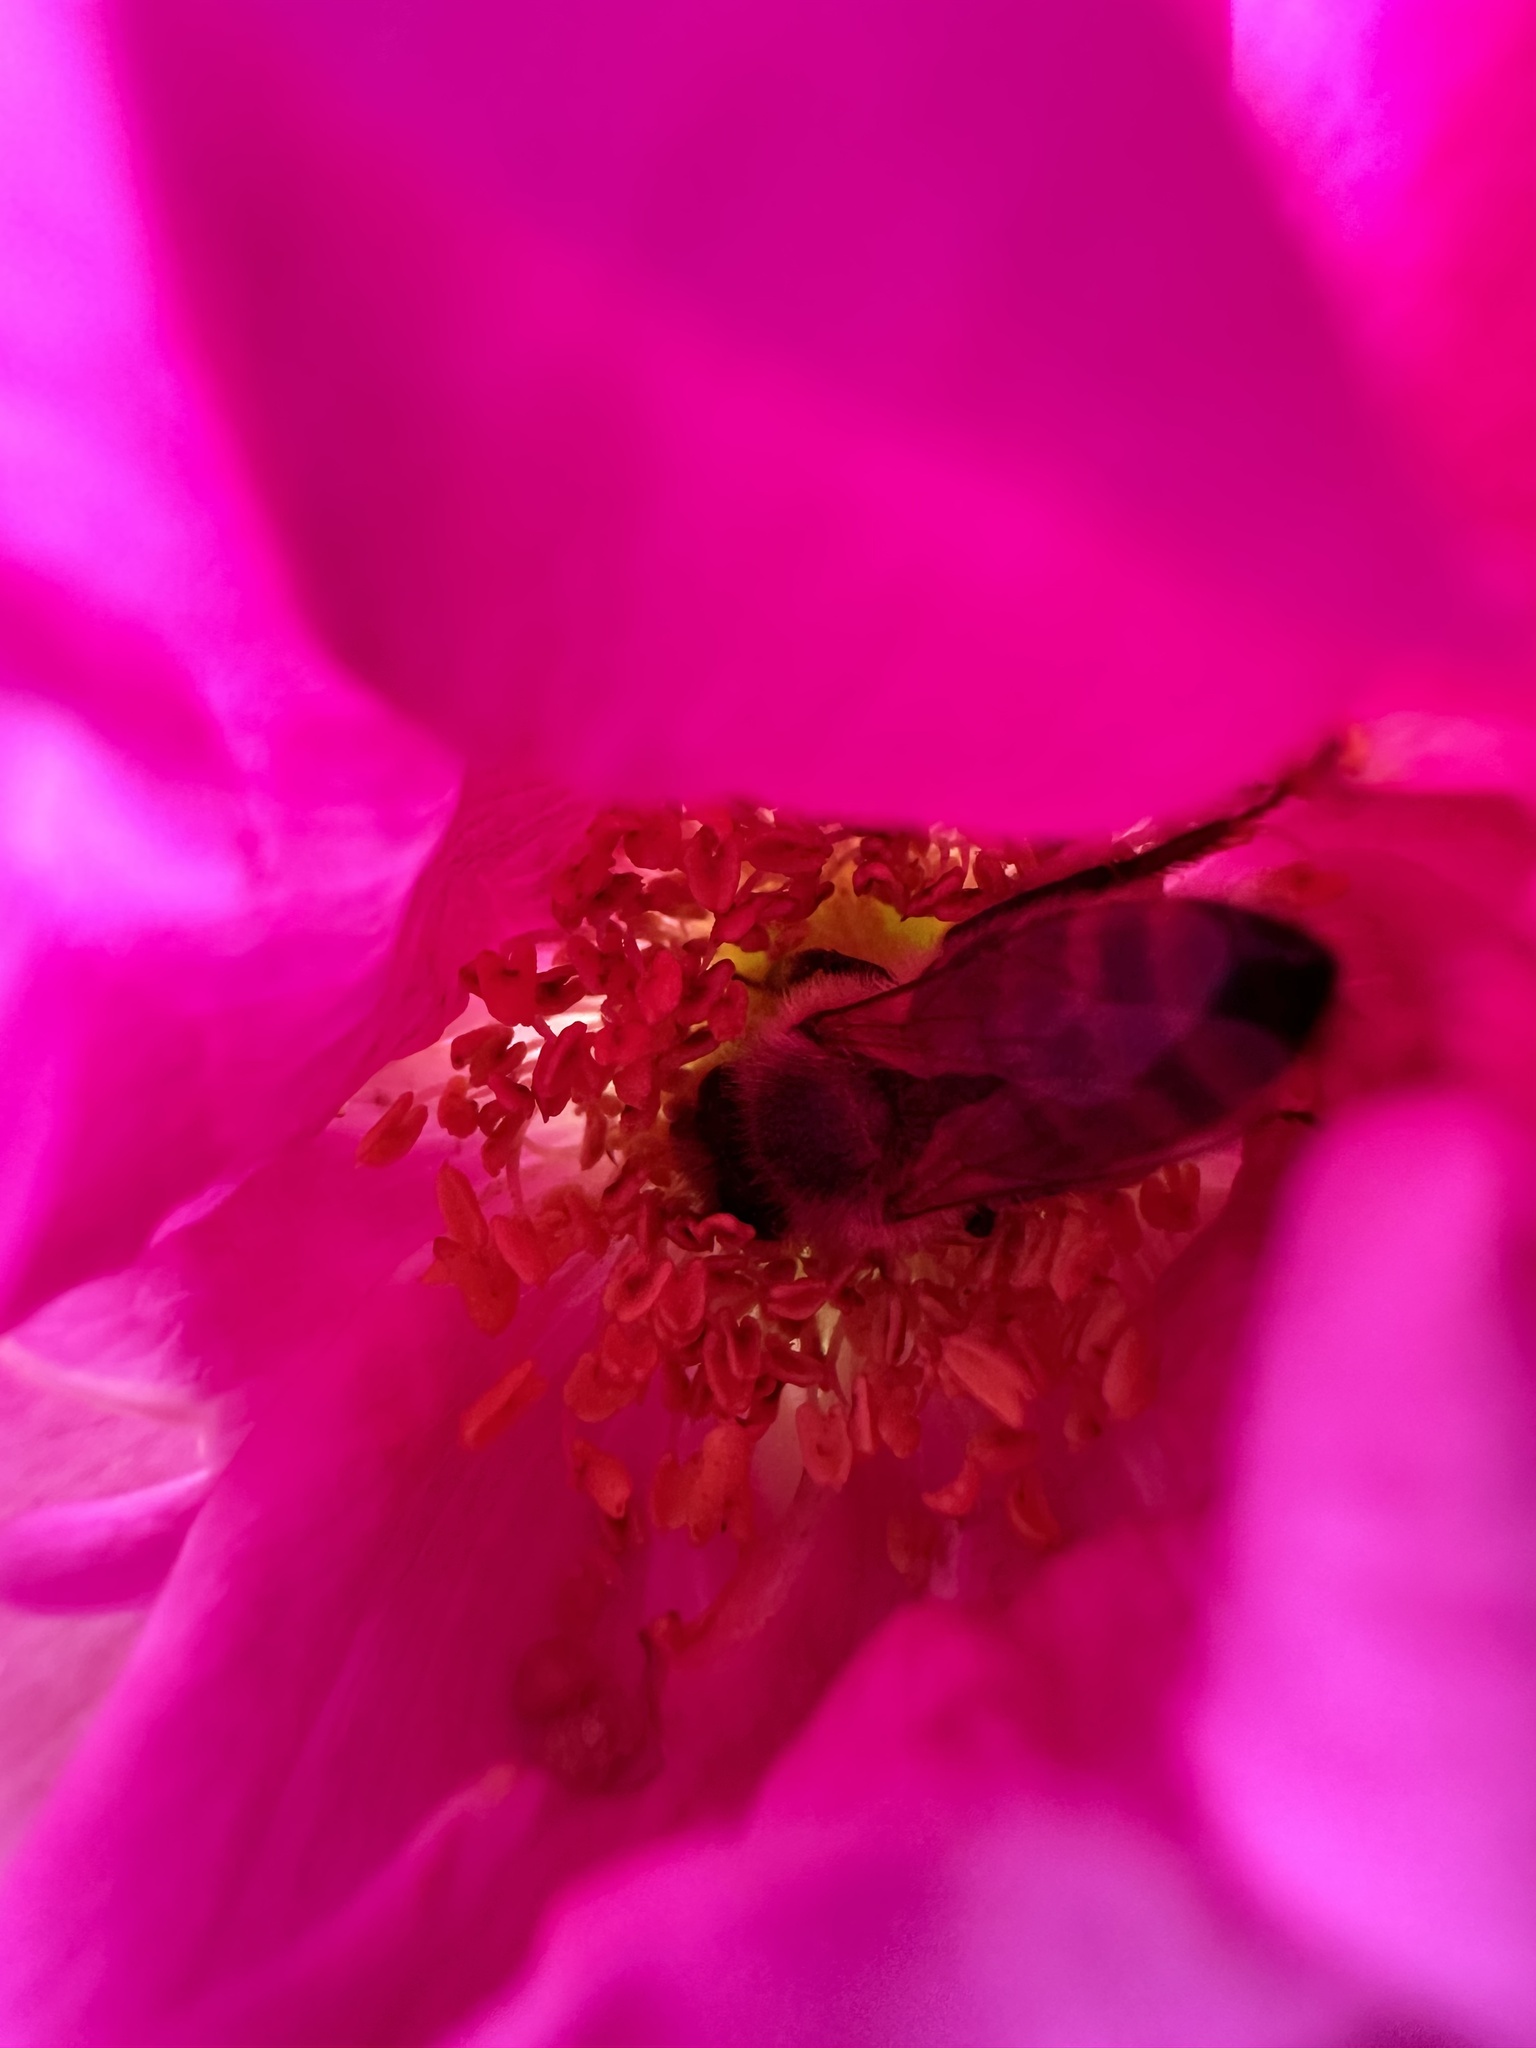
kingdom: Animalia
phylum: Arthropoda
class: Insecta
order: Hymenoptera
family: Apidae
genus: Apis
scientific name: Apis mellifera
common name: Honey bee
